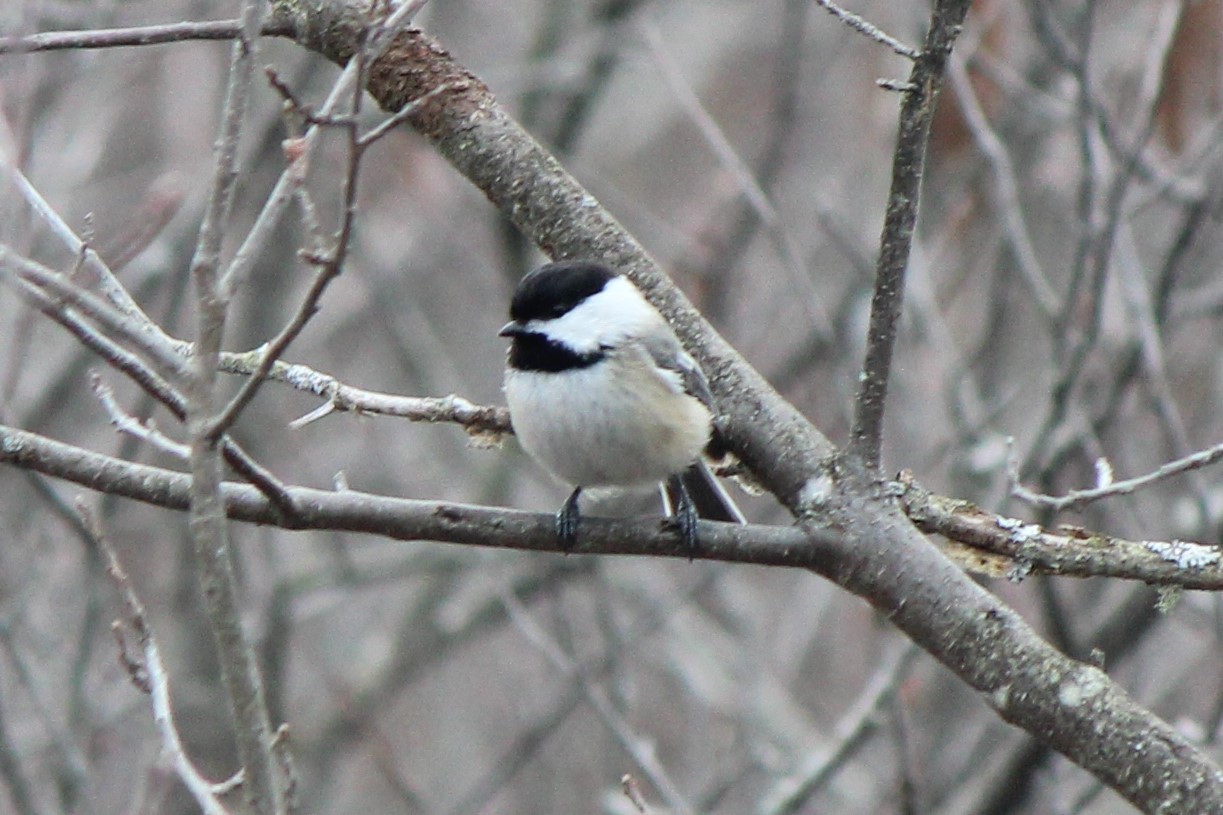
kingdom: Animalia
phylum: Chordata
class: Aves
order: Passeriformes
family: Paridae
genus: Poecile
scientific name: Poecile atricapillus
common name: Black-capped chickadee
